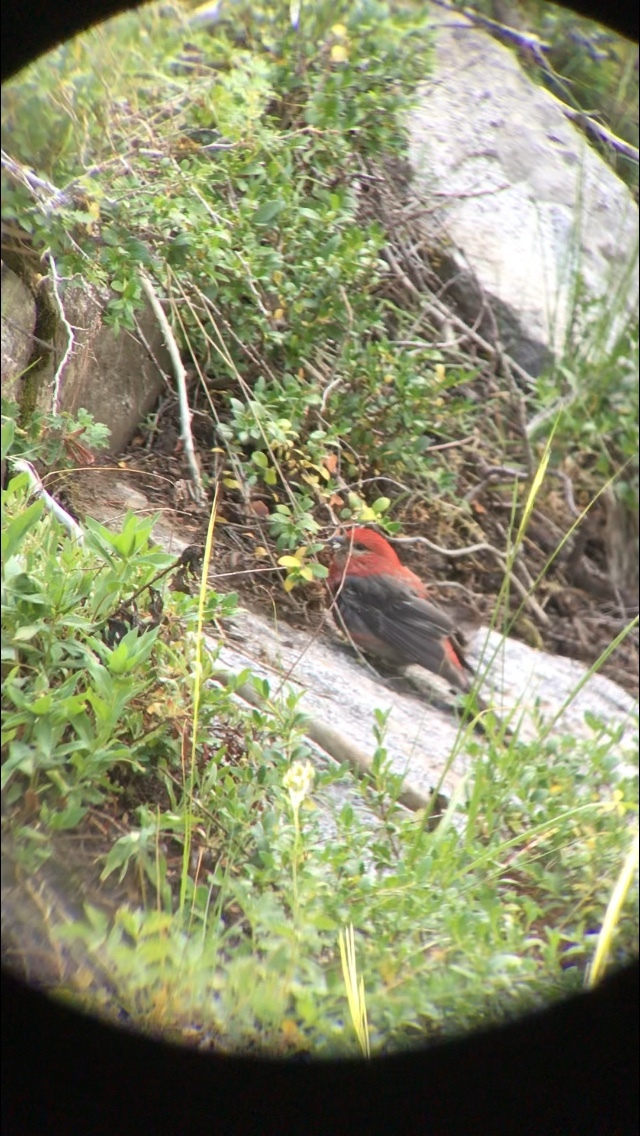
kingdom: Animalia
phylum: Chordata
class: Aves
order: Passeriformes
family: Fringillidae
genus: Pinicola
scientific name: Pinicola enucleator
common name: Pine grosbeak
